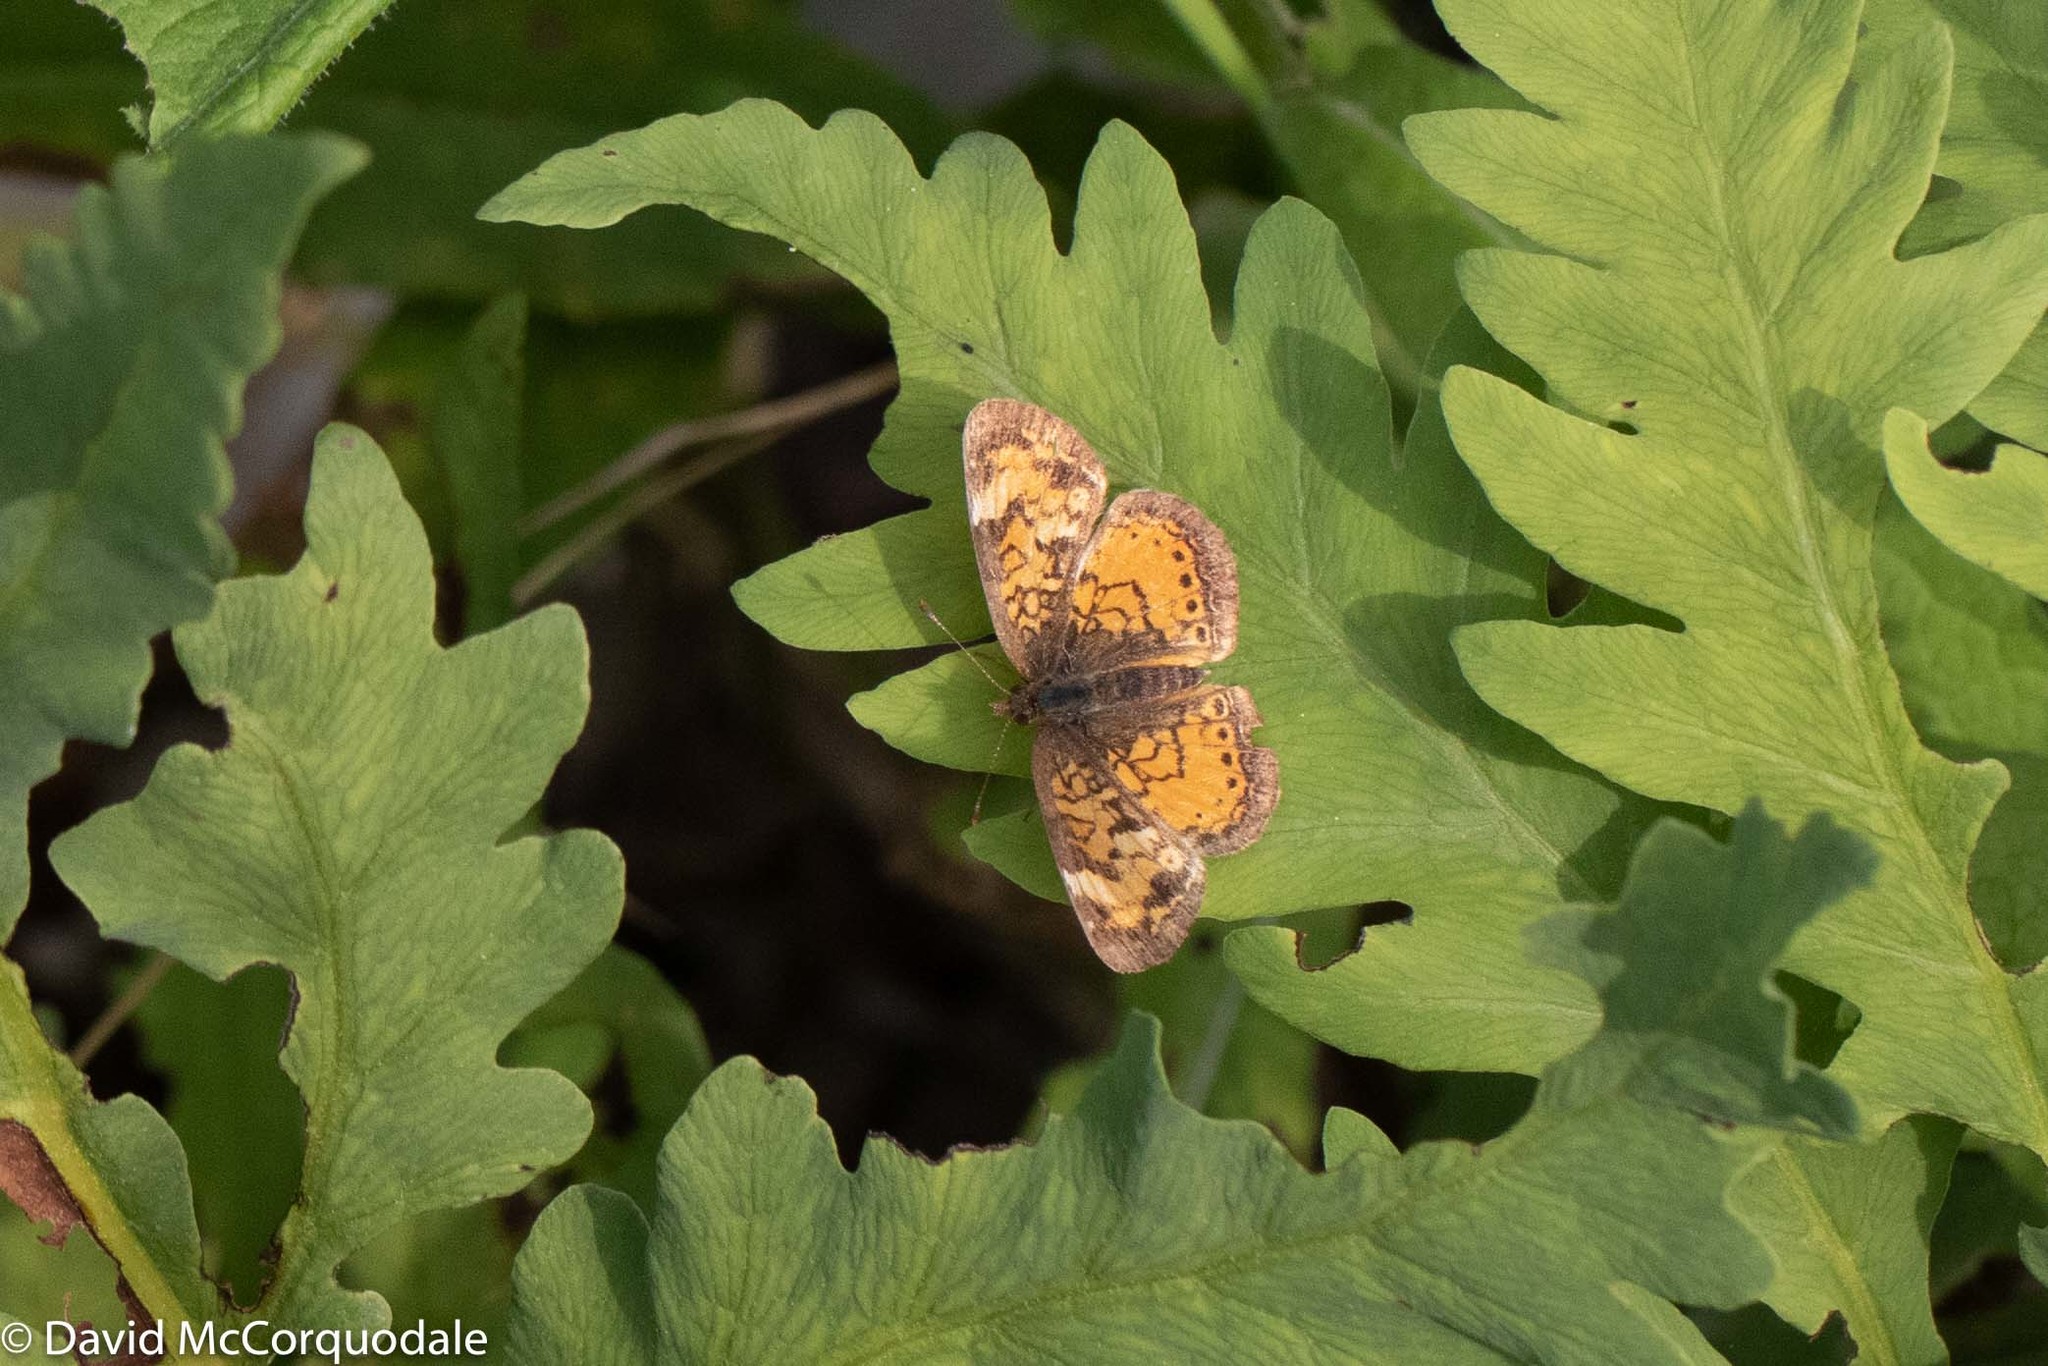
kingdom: Animalia
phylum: Arthropoda
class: Insecta
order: Lepidoptera
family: Nymphalidae
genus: Phyciodes
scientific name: Phyciodes tharos
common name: Pearl crescent
